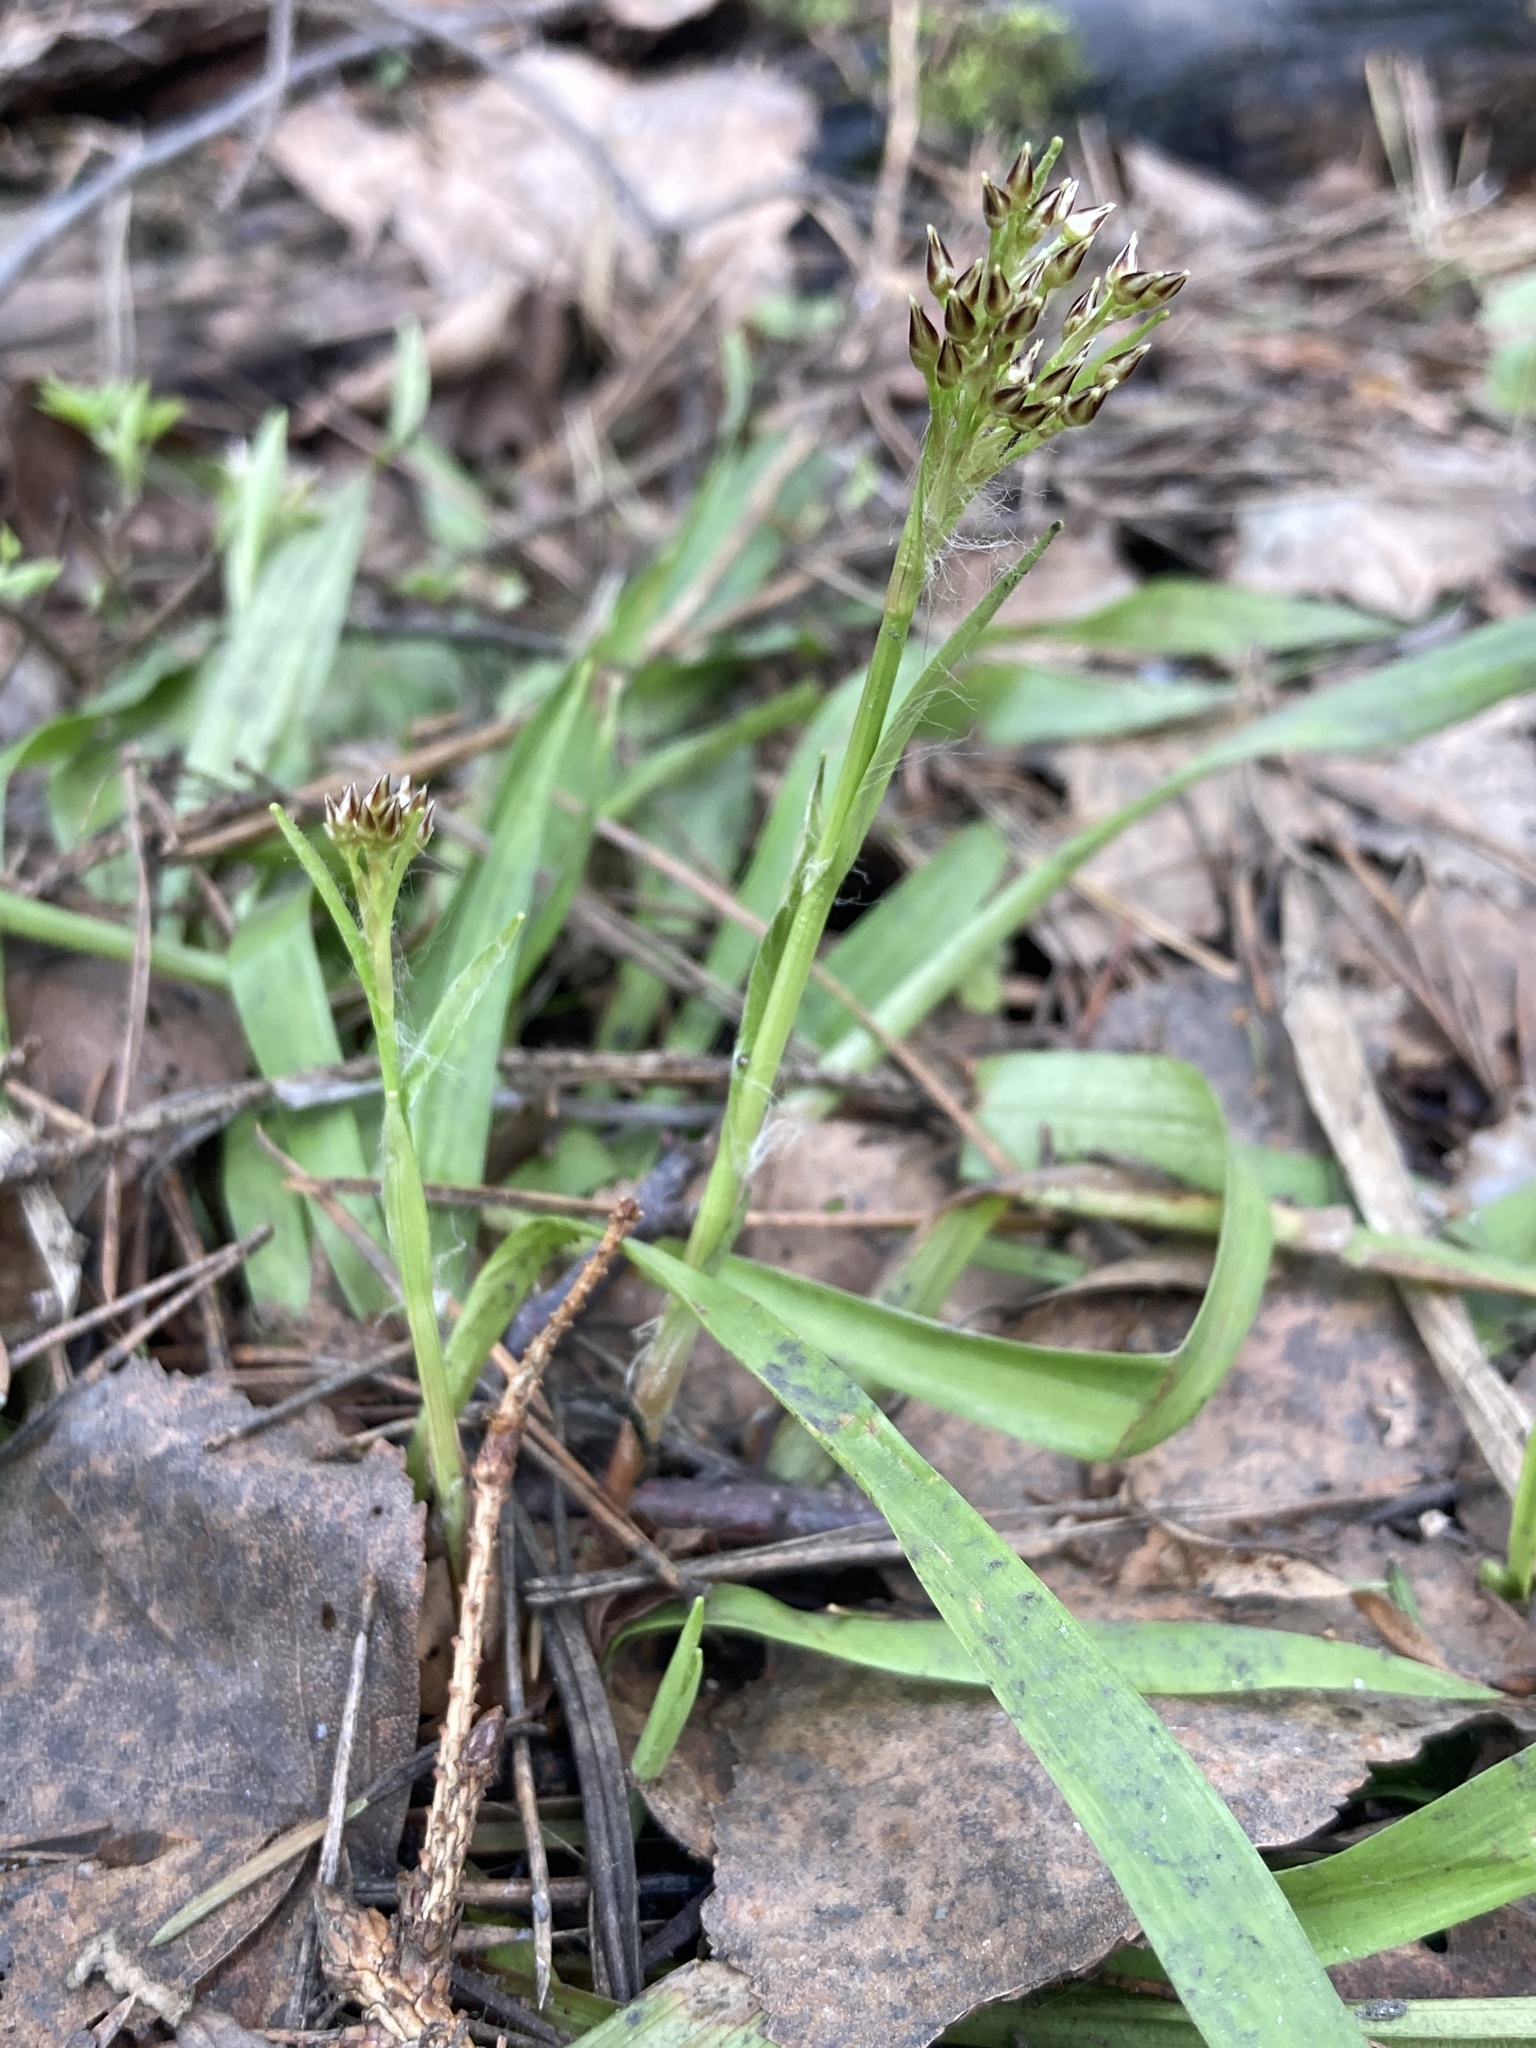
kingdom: Plantae
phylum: Tracheophyta
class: Liliopsida
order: Poales
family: Juncaceae
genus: Luzula
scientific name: Luzula pilosa
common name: Hairy wood-rush
